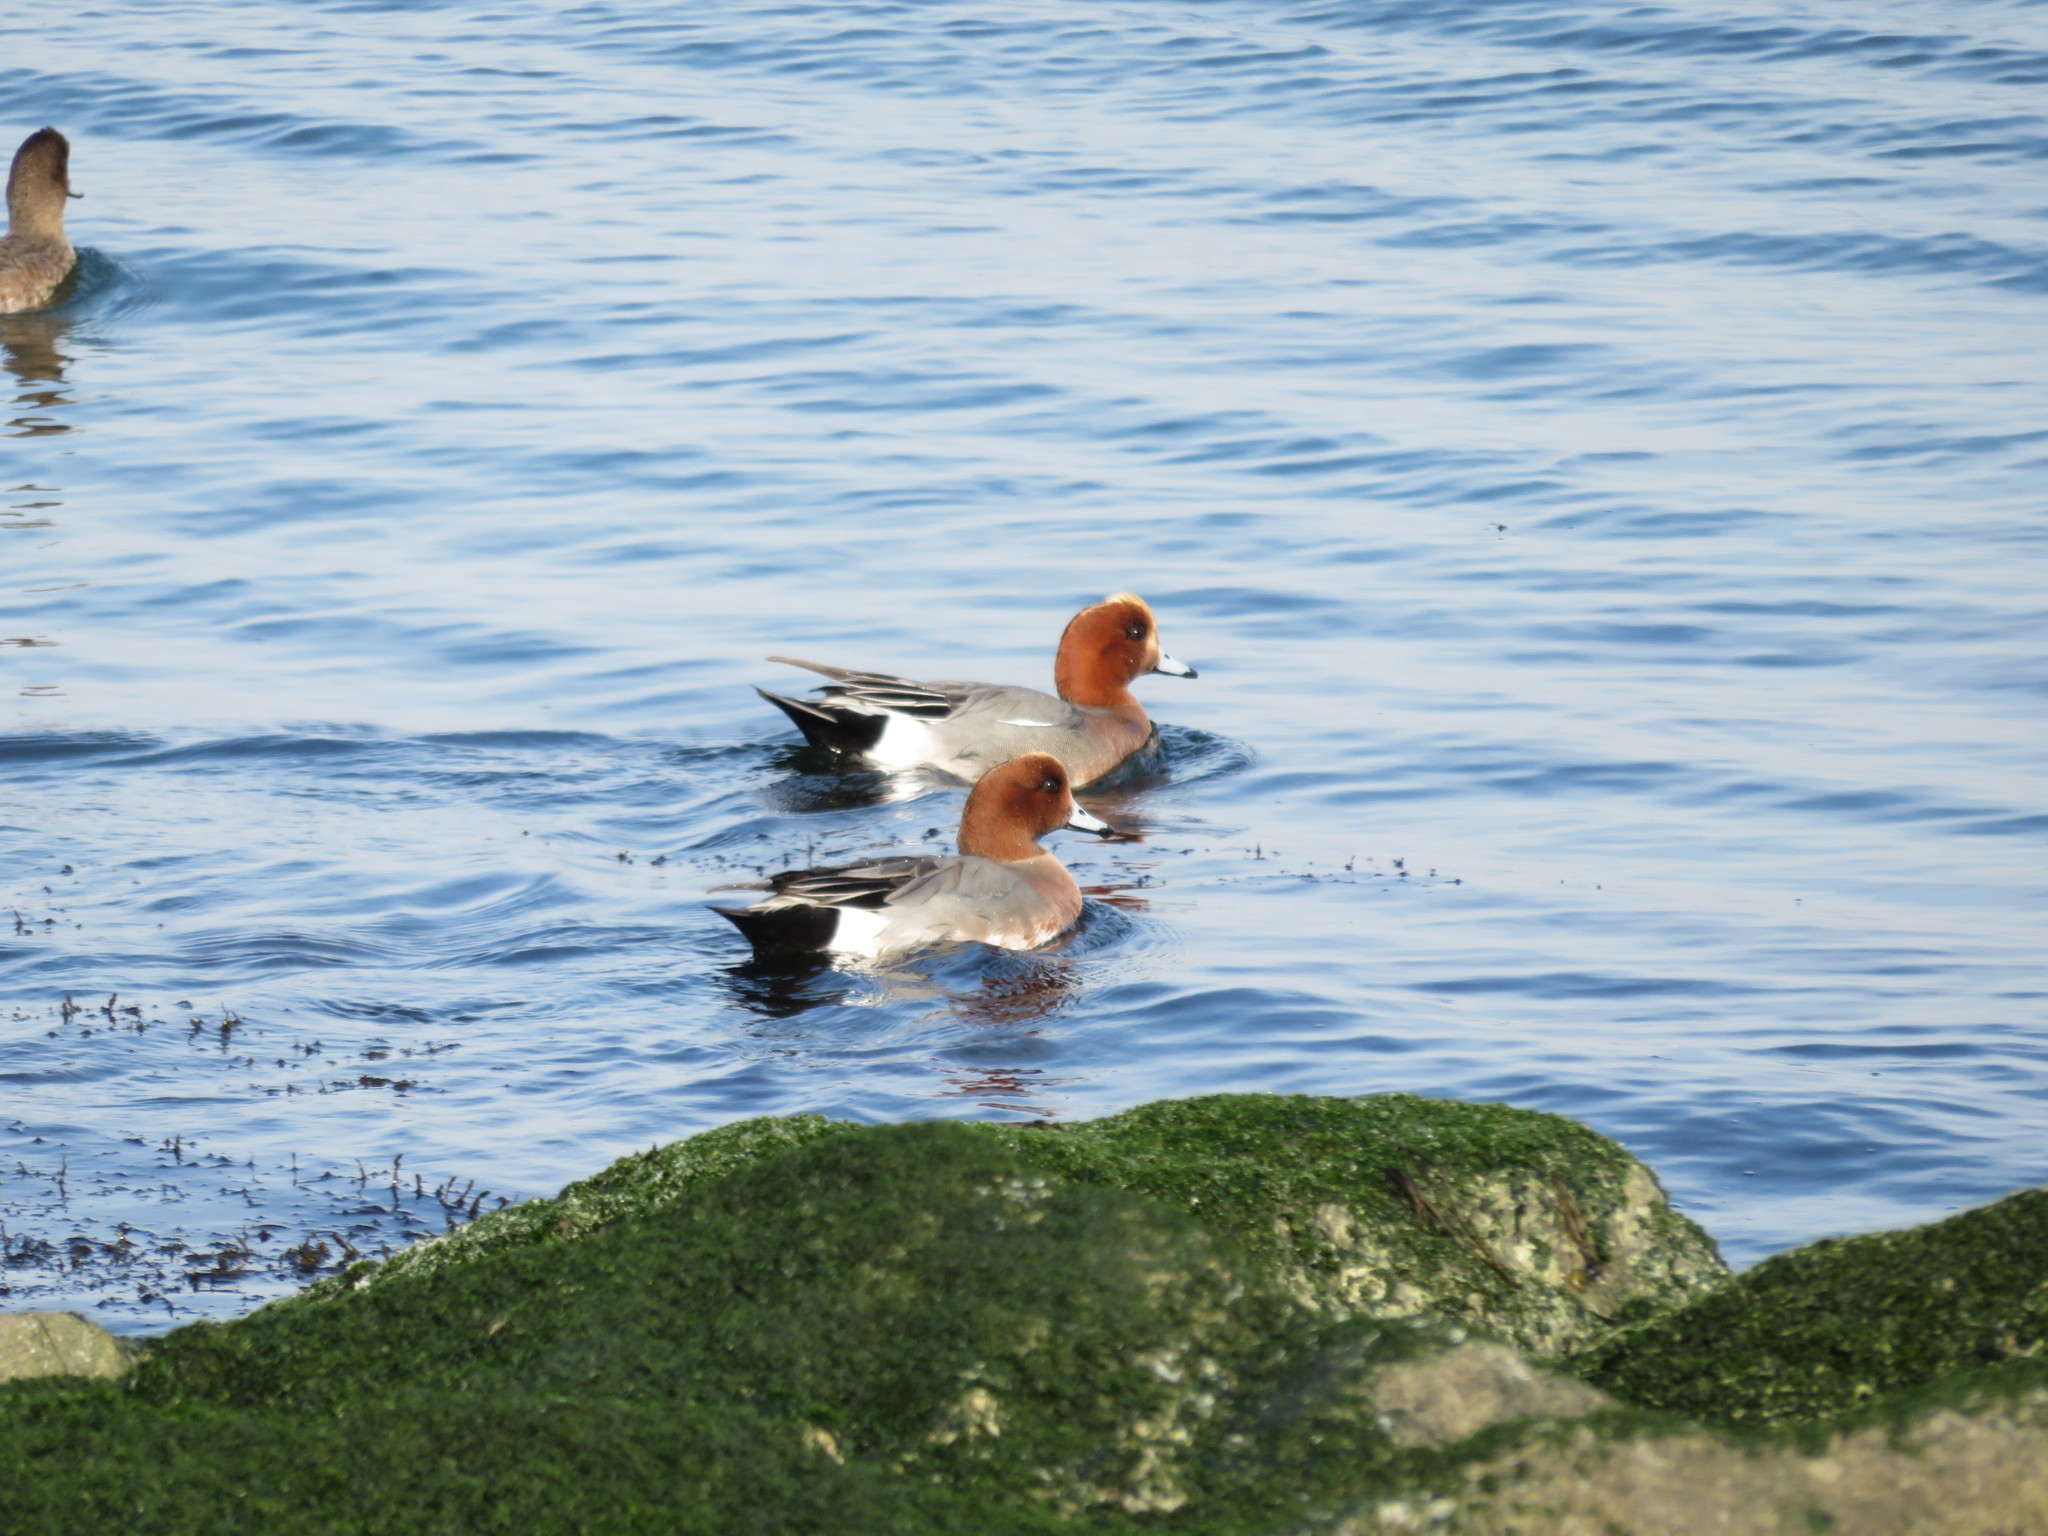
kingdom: Animalia
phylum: Chordata
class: Aves
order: Anseriformes
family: Anatidae
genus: Mareca
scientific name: Mareca penelope
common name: Eurasian wigeon
